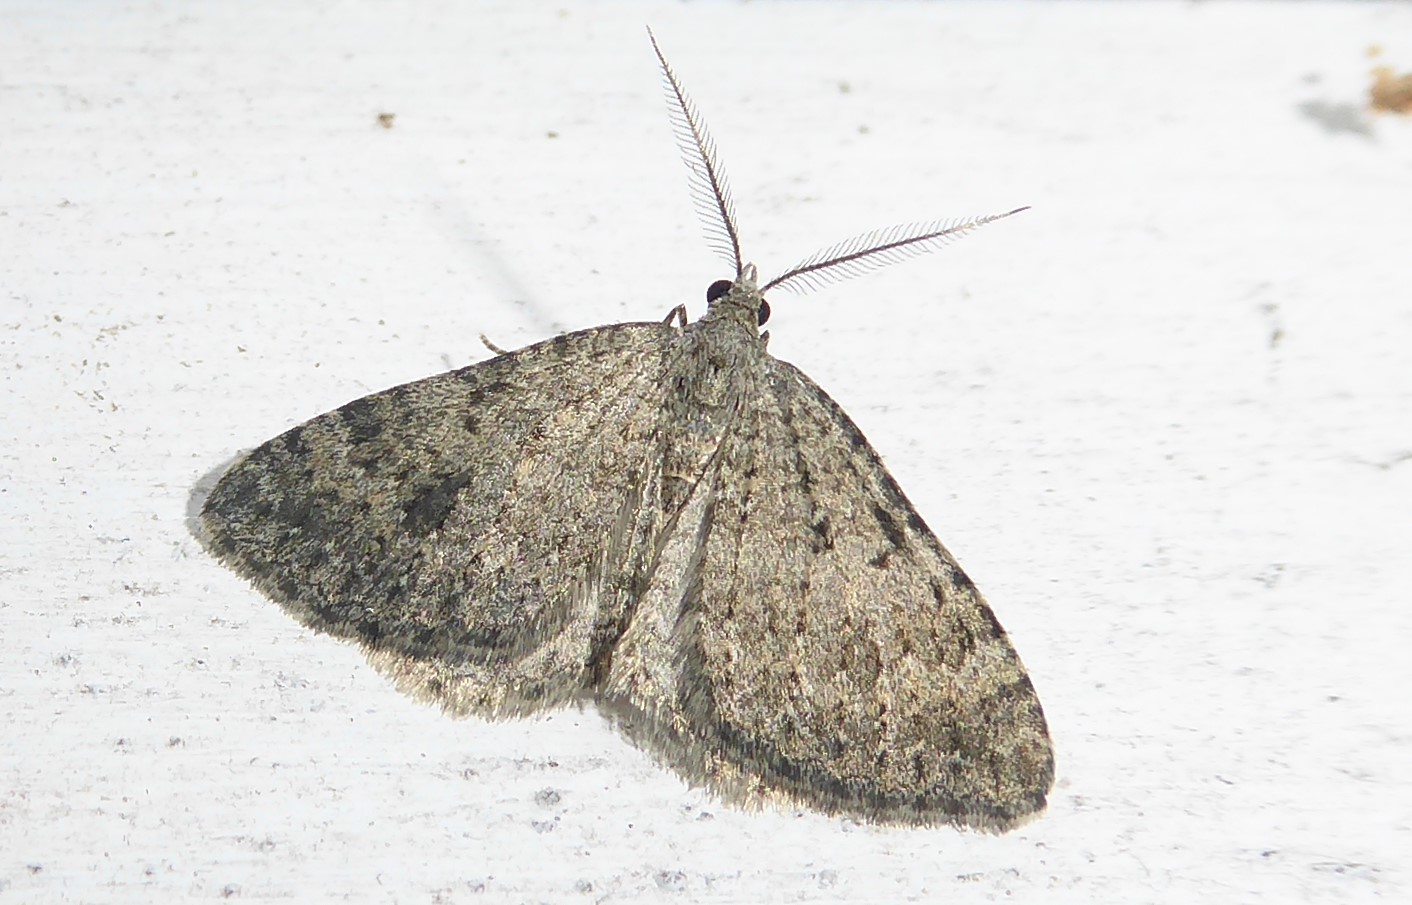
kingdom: Animalia
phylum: Arthropoda
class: Insecta
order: Lepidoptera
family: Geometridae
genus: Helastia
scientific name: Helastia corcularia
